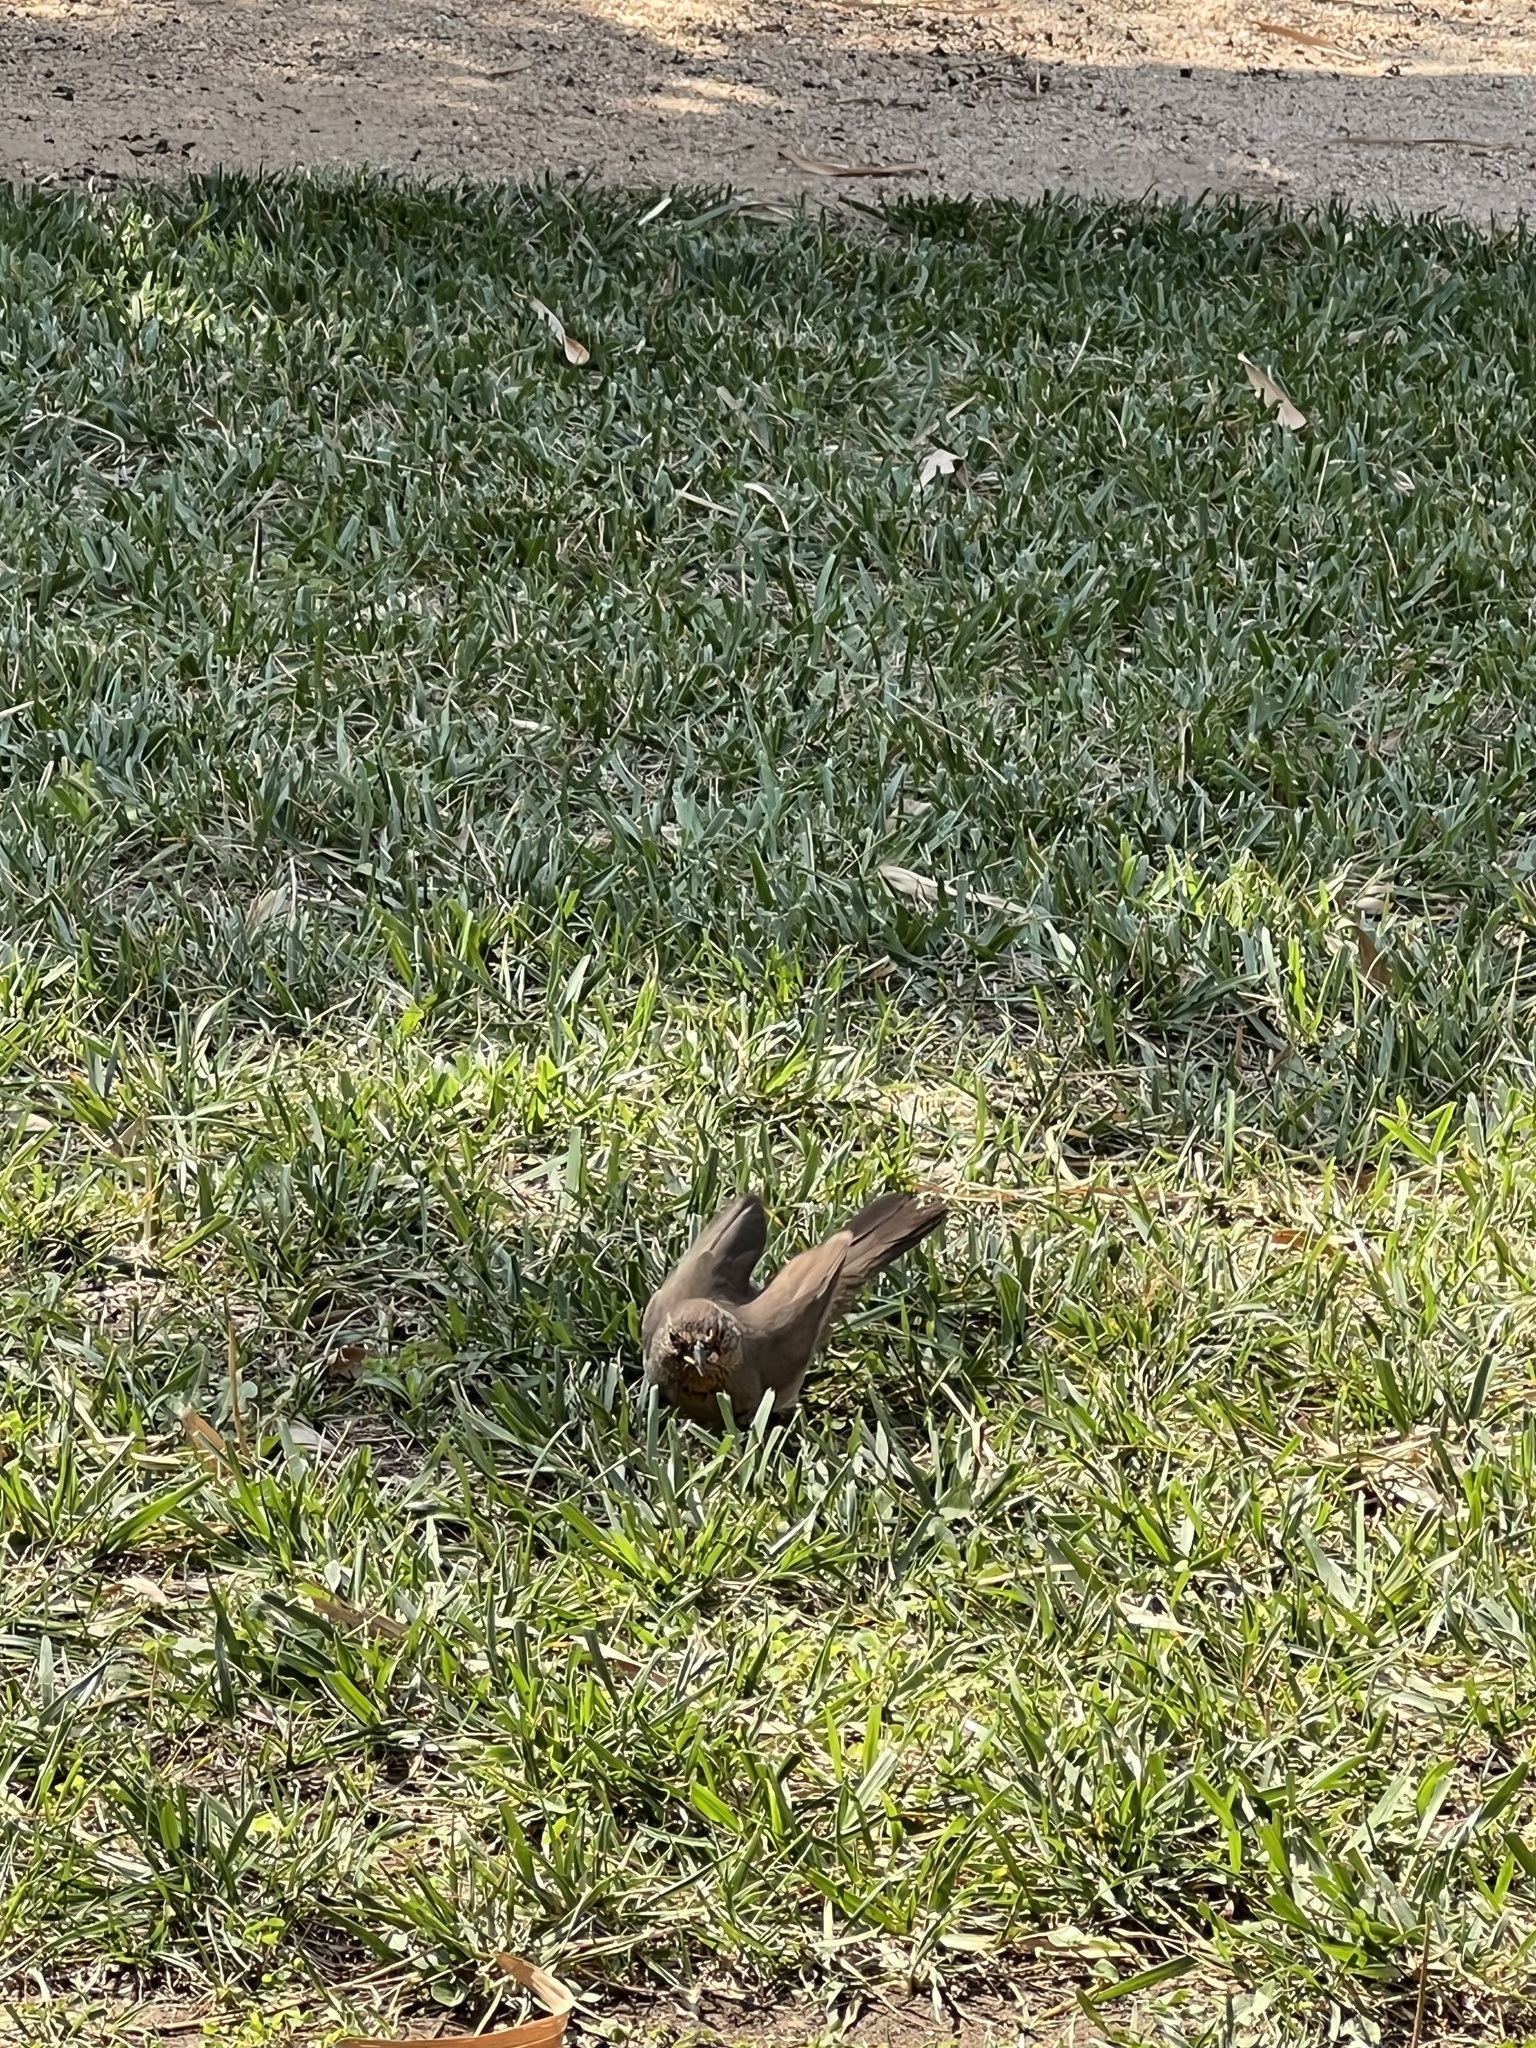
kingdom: Animalia
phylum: Chordata
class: Aves
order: Passeriformes
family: Passerellidae
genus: Melozone
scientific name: Melozone crissalis
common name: California towhee
